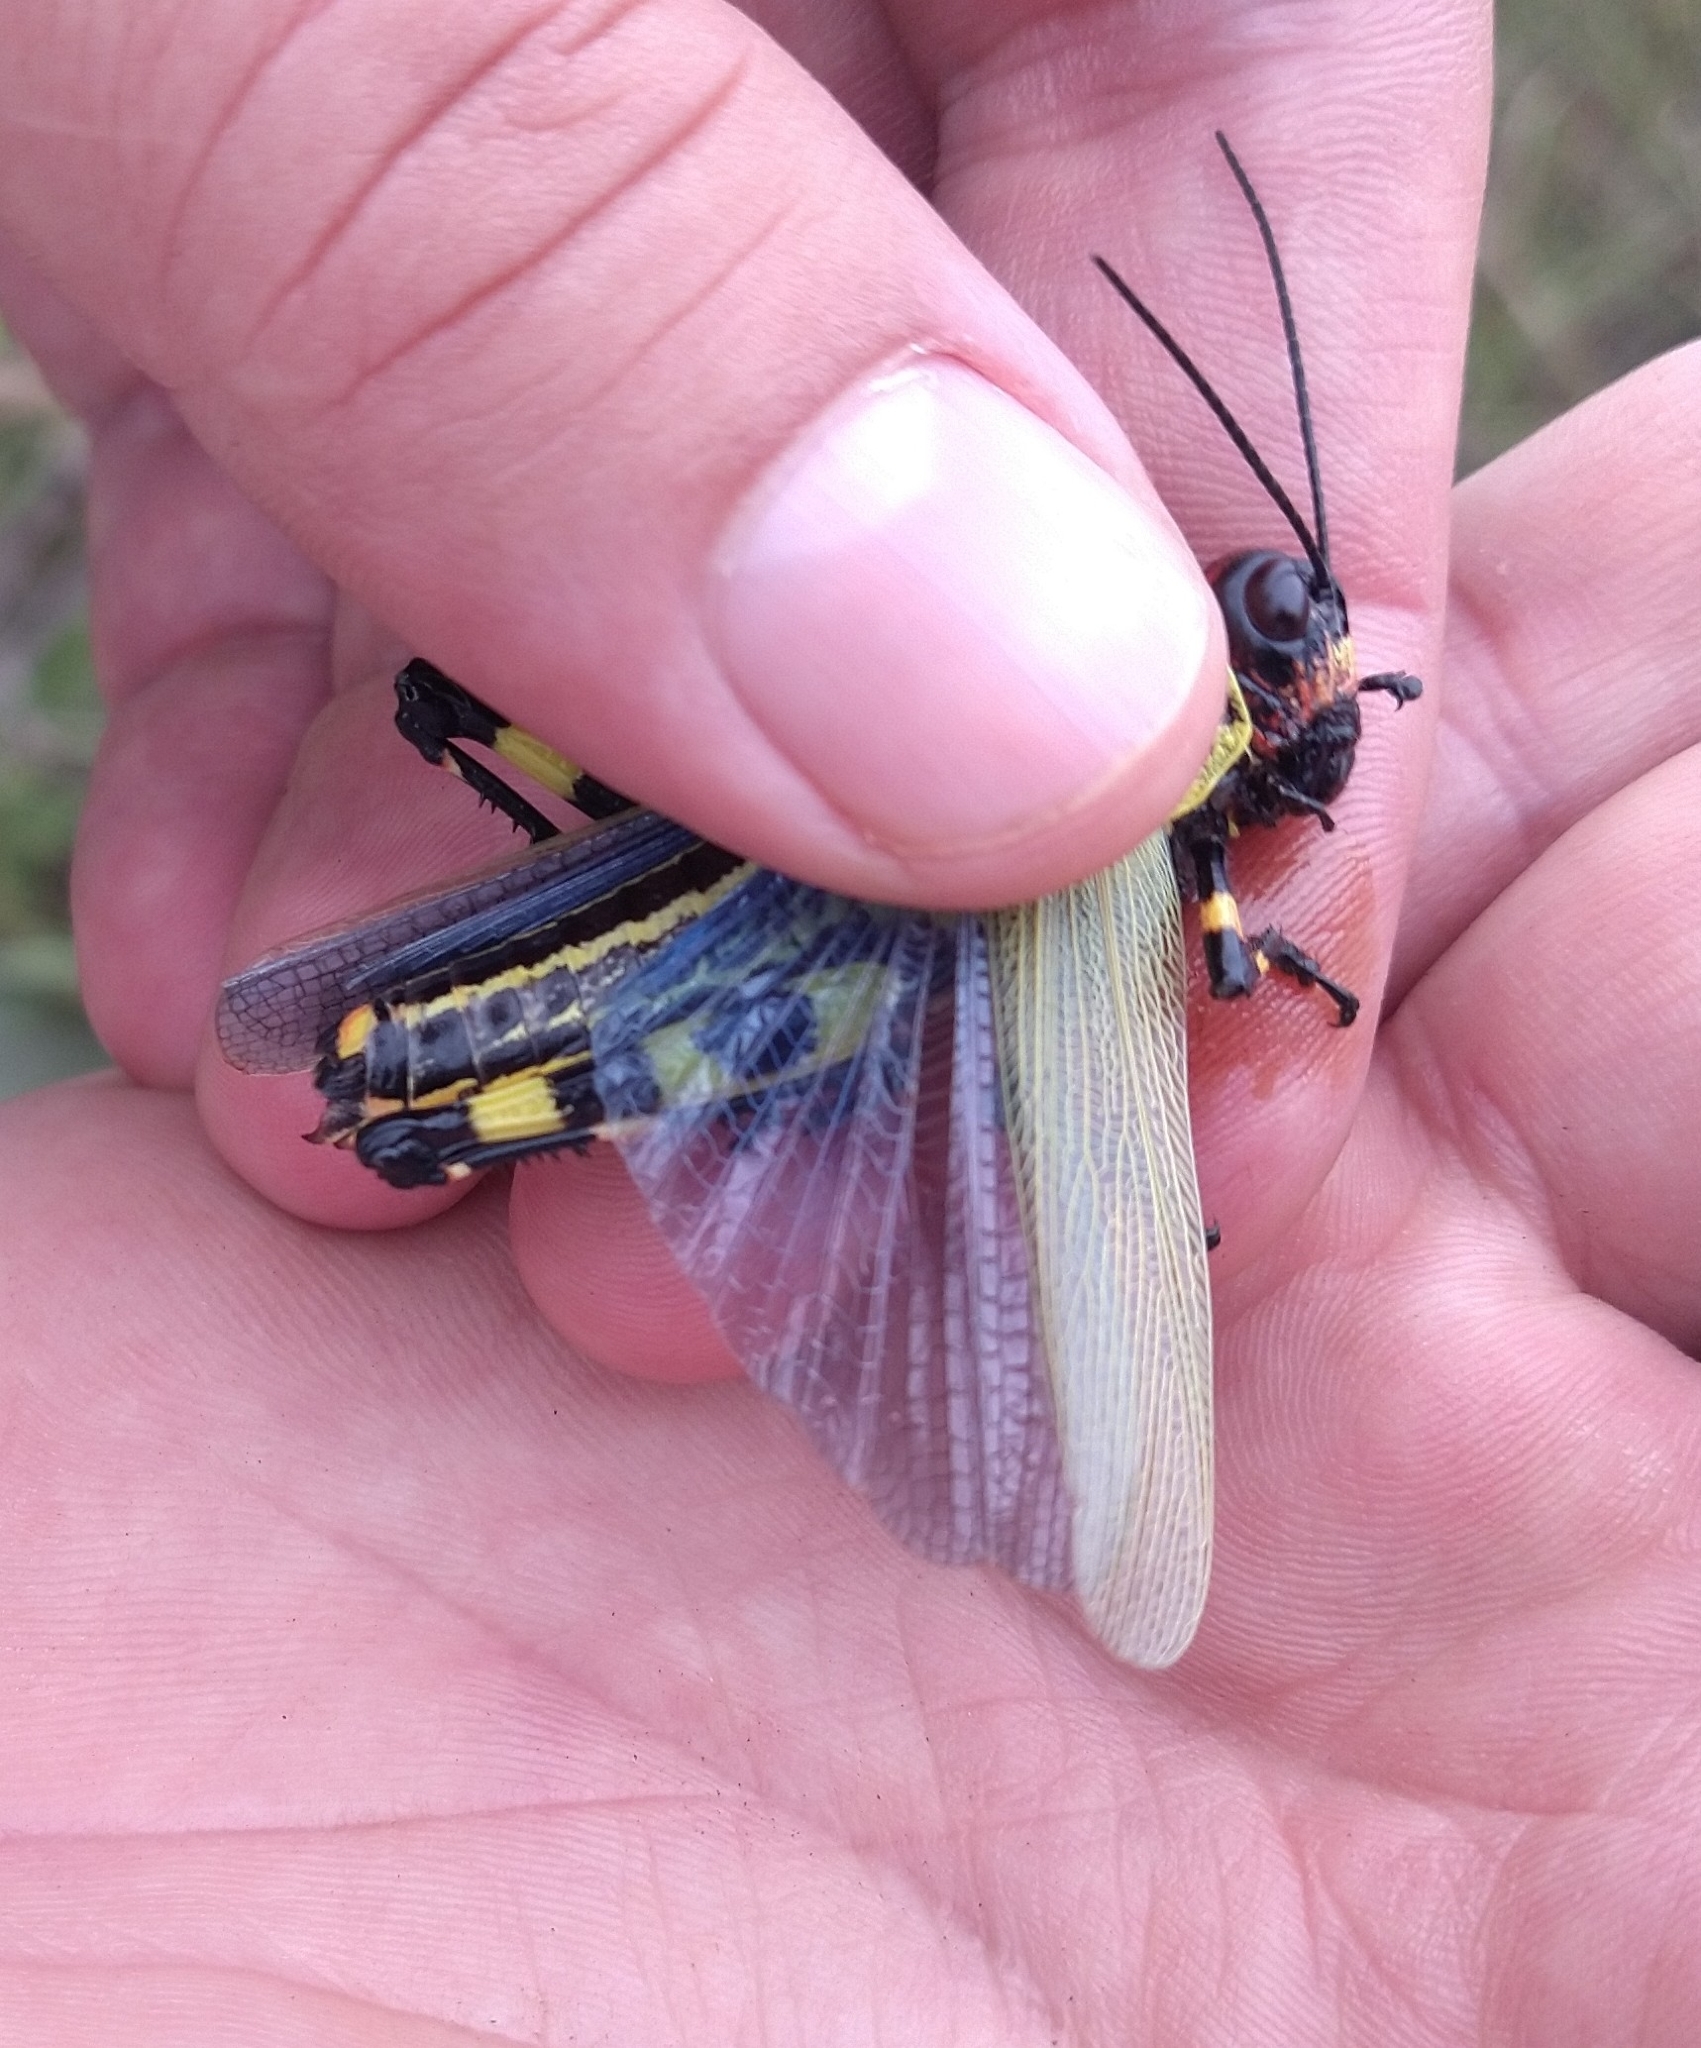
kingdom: Animalia
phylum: Arthropoda
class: Insecta
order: Orthoptera
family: Romaleidae
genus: Zoniopoda
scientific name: Zoniopoda danottei
